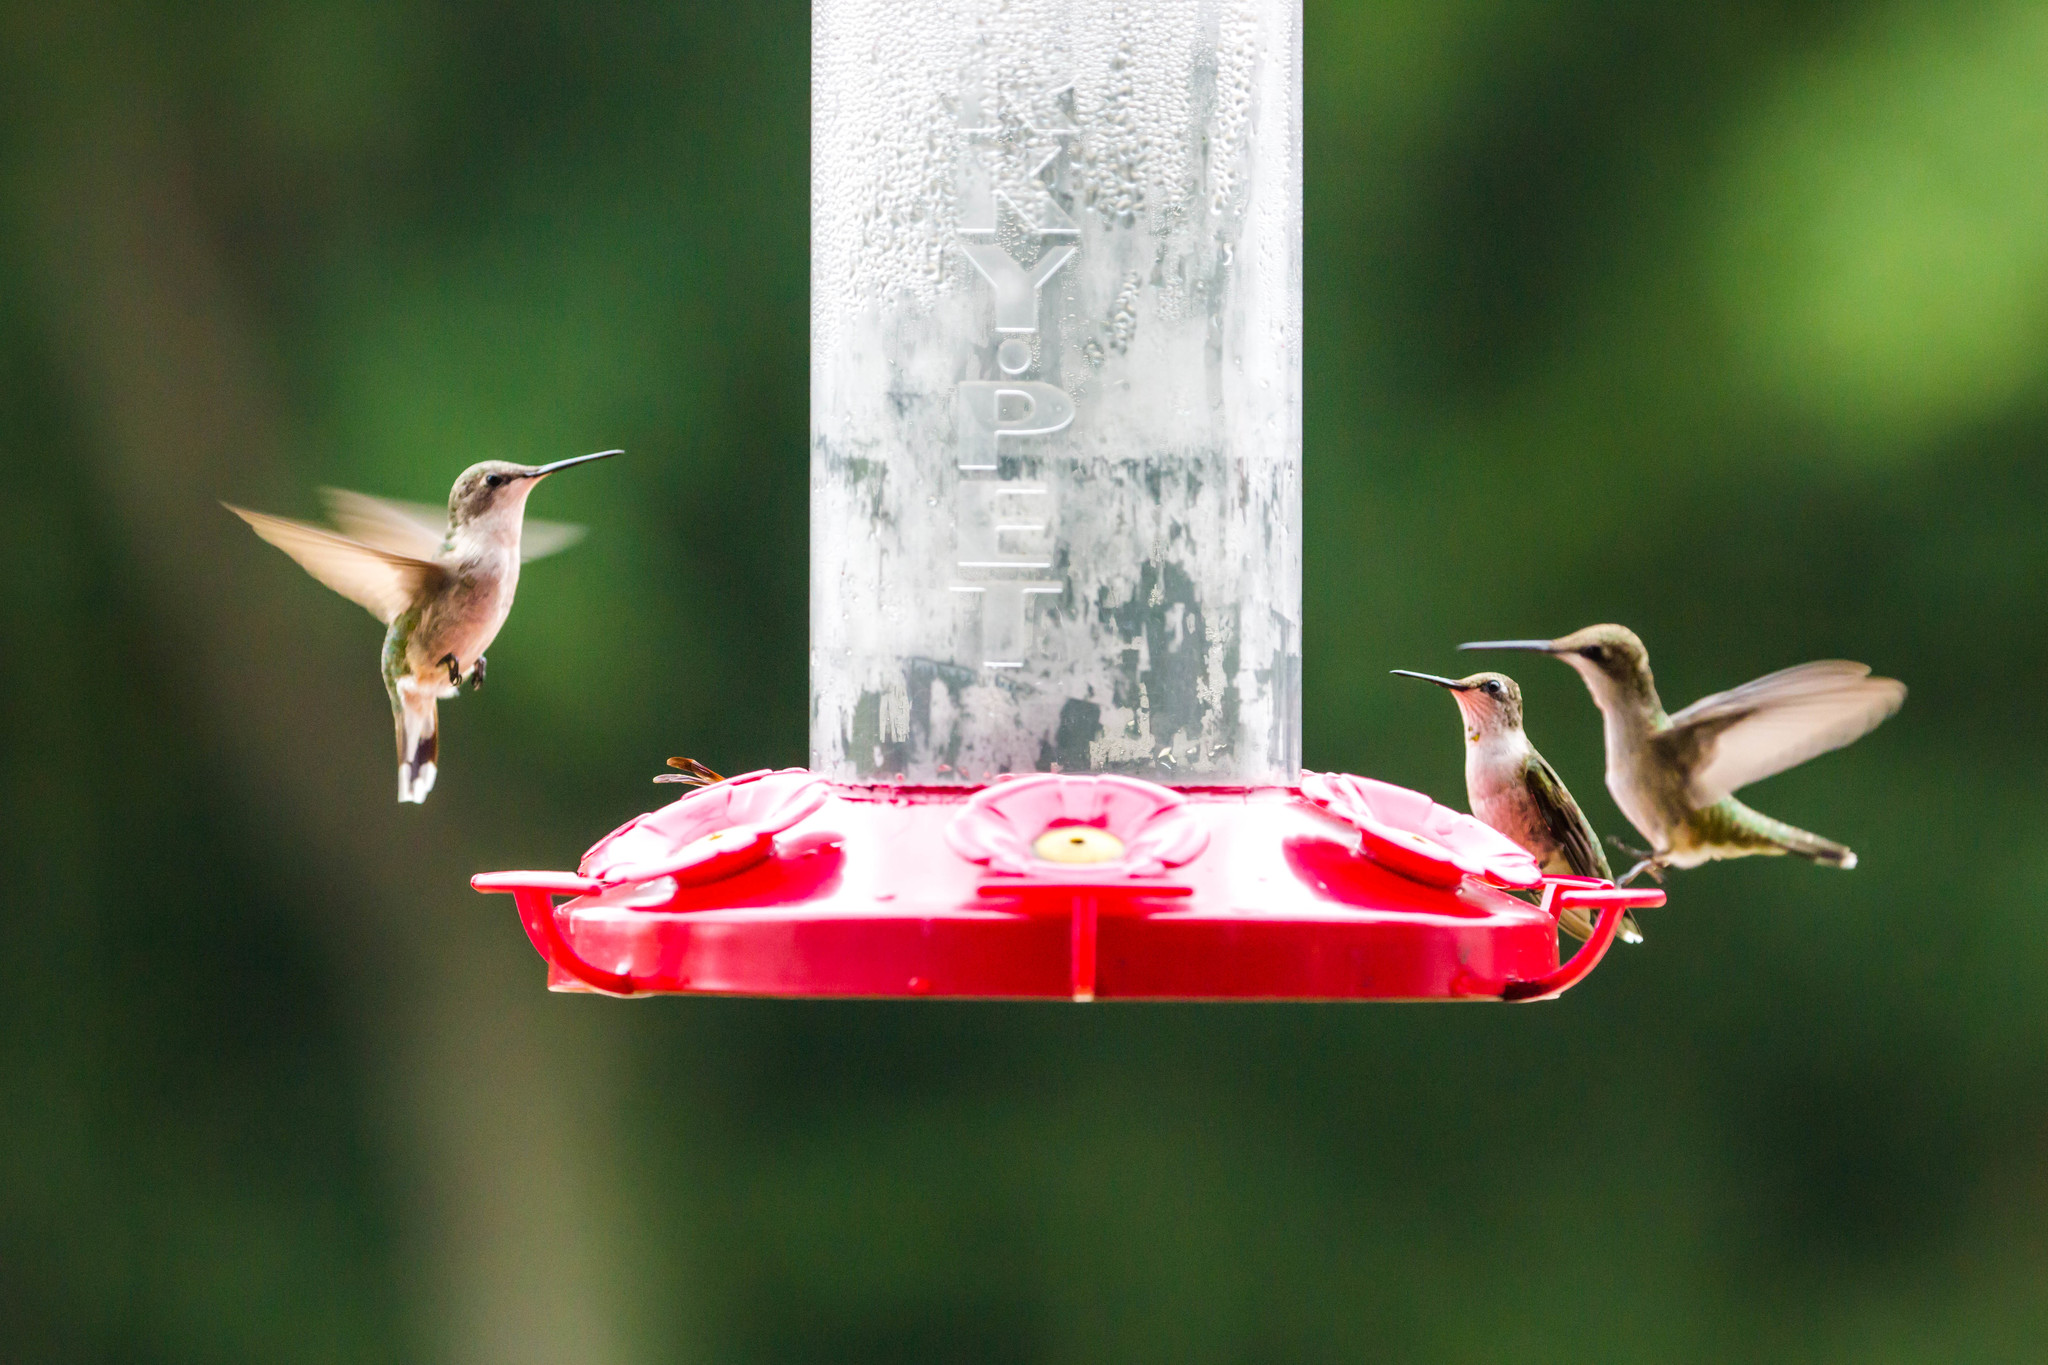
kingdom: Animalia
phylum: Chordata
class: Aves
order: Apodiformes
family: Trochilidae
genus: Archilochus
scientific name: Archilochus colubris
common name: Ruby-throated hummingbird
